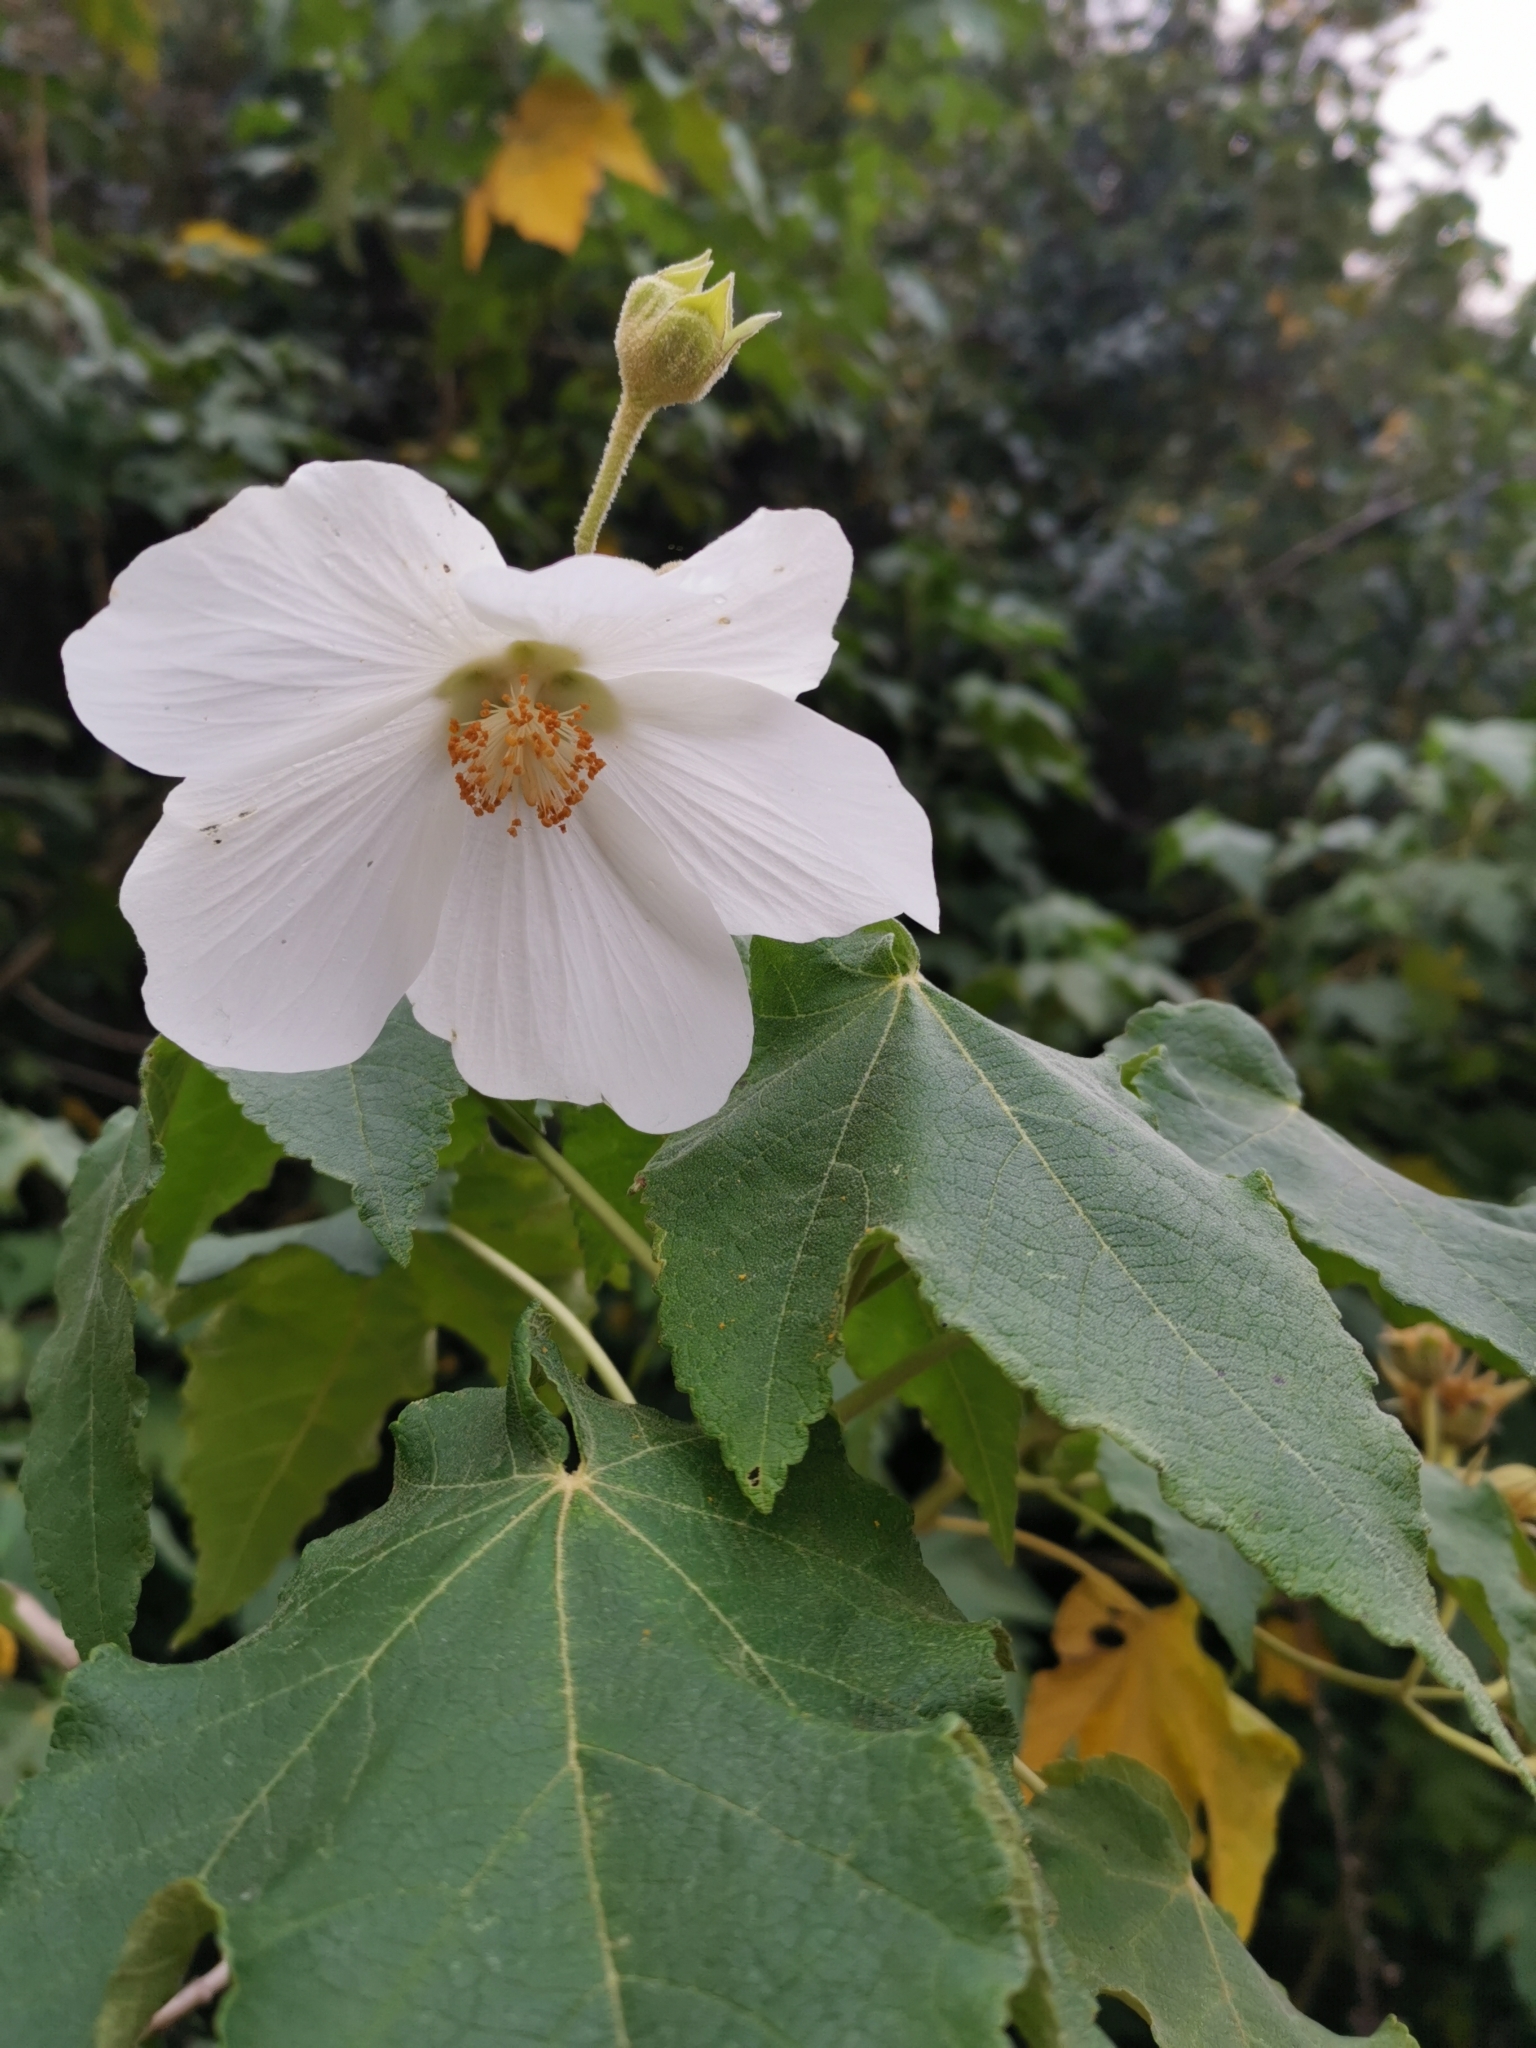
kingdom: Plantae
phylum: Tracheophyta
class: Magnoliopsida
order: Malvales
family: Malvaceae
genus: Corynabutilon
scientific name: Corynabutilon vitifolium
